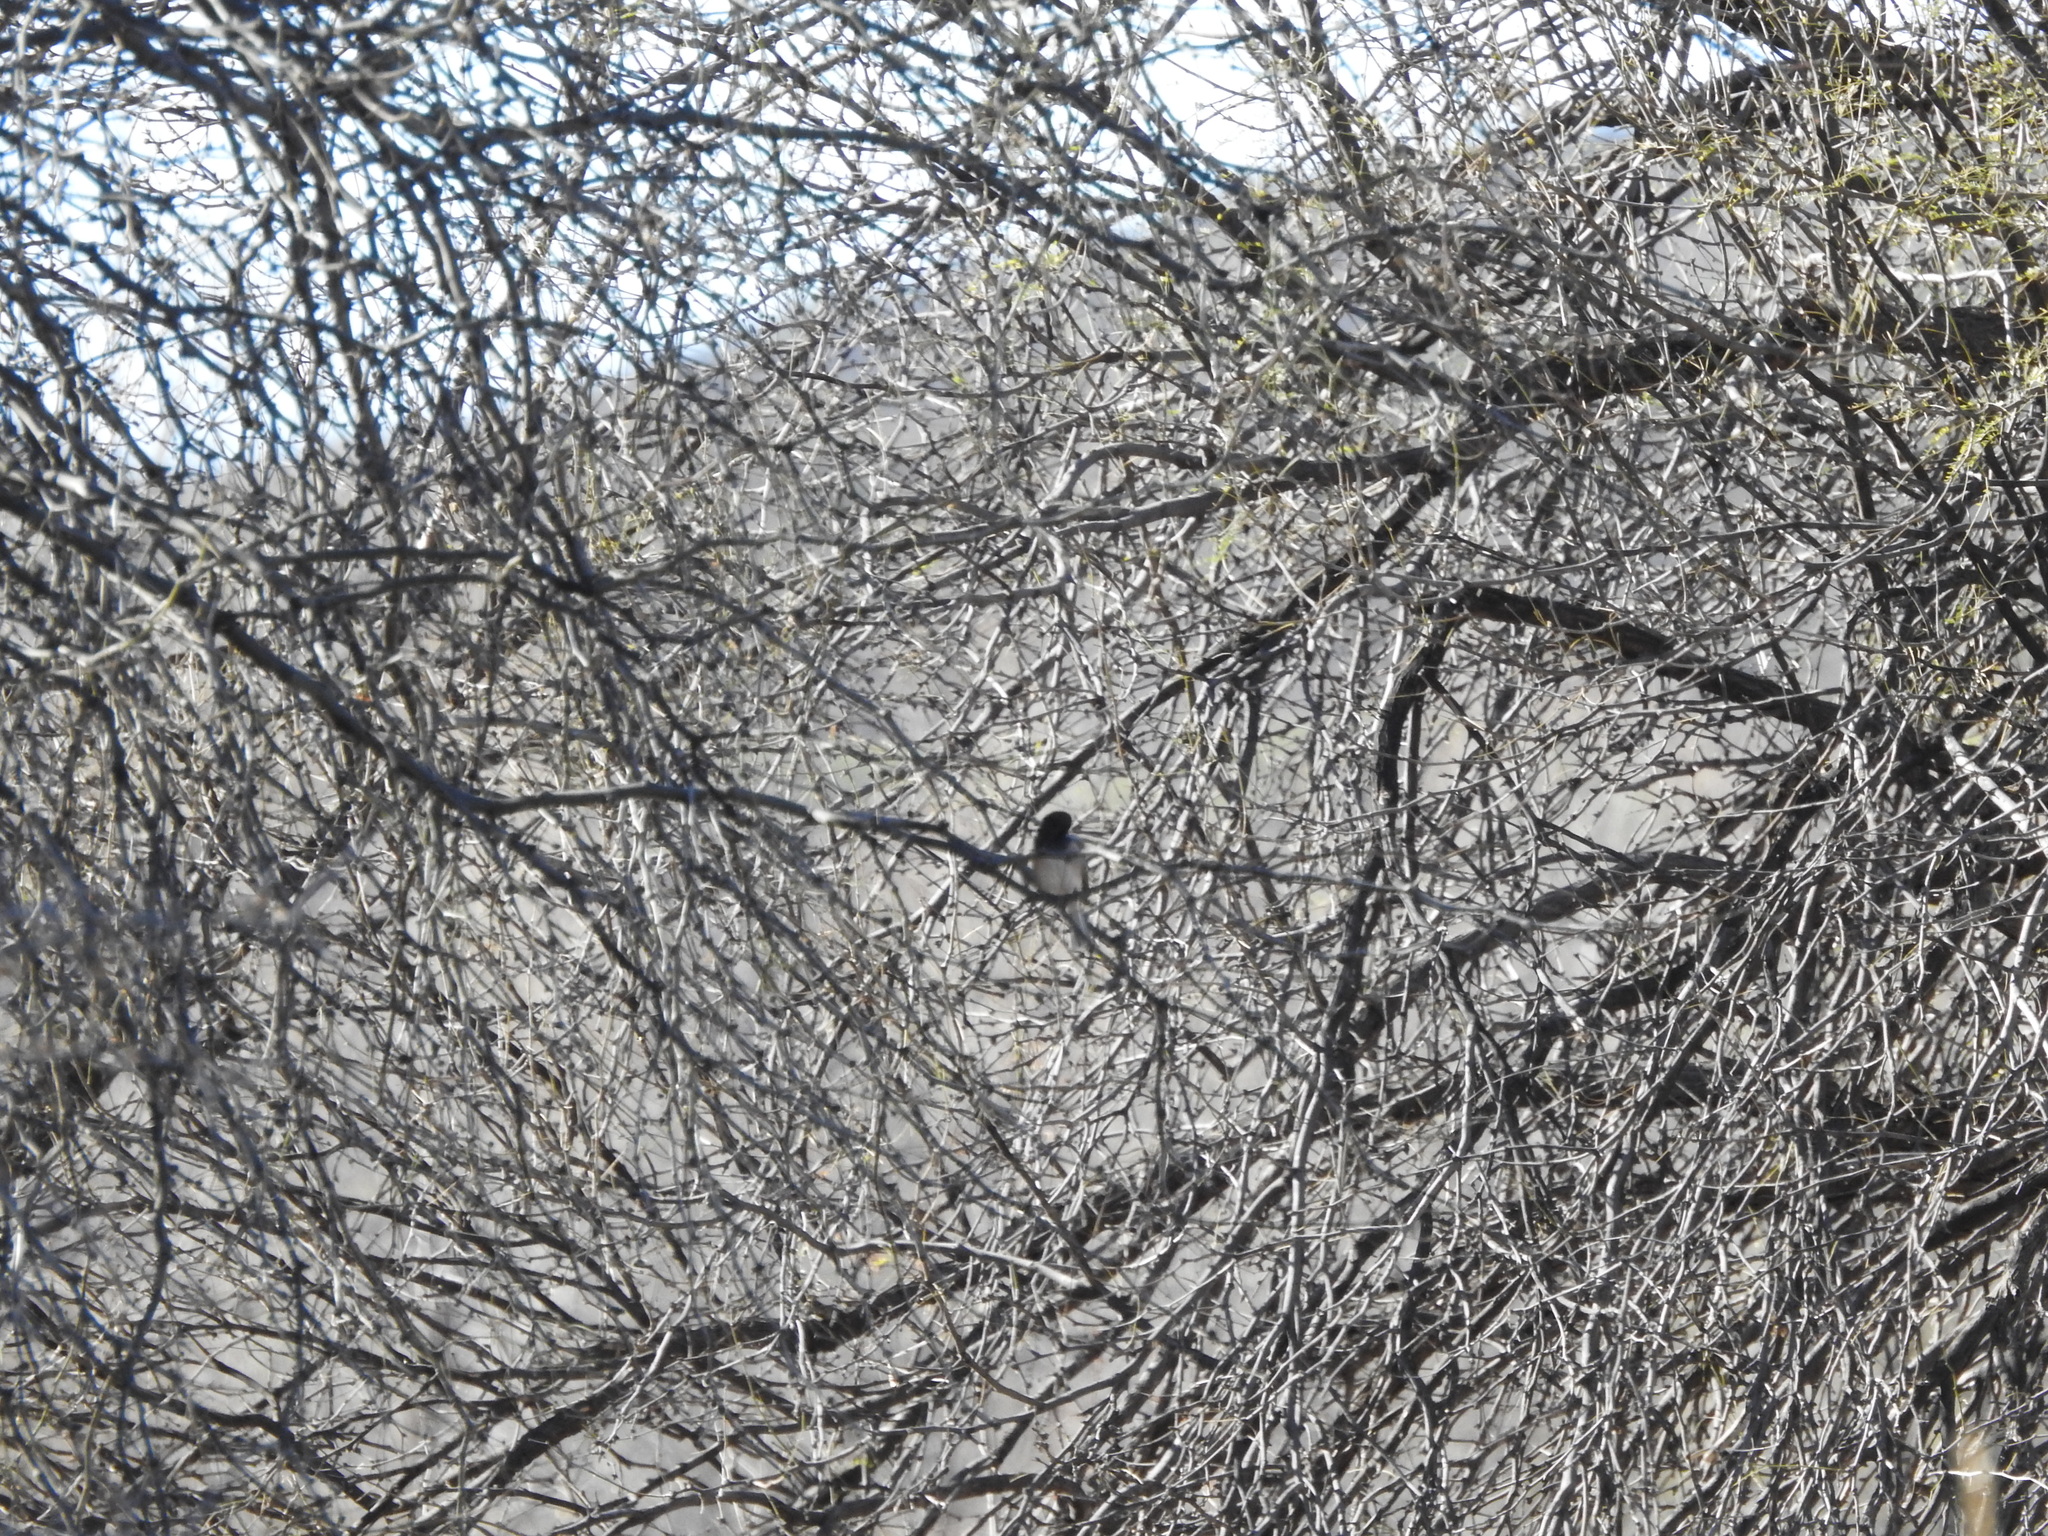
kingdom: Animalia
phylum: Chordata
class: Aves
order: Passeriformes
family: Passerellidae
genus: Junco
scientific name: Junco hyemalis
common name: Dark-eyed junco
